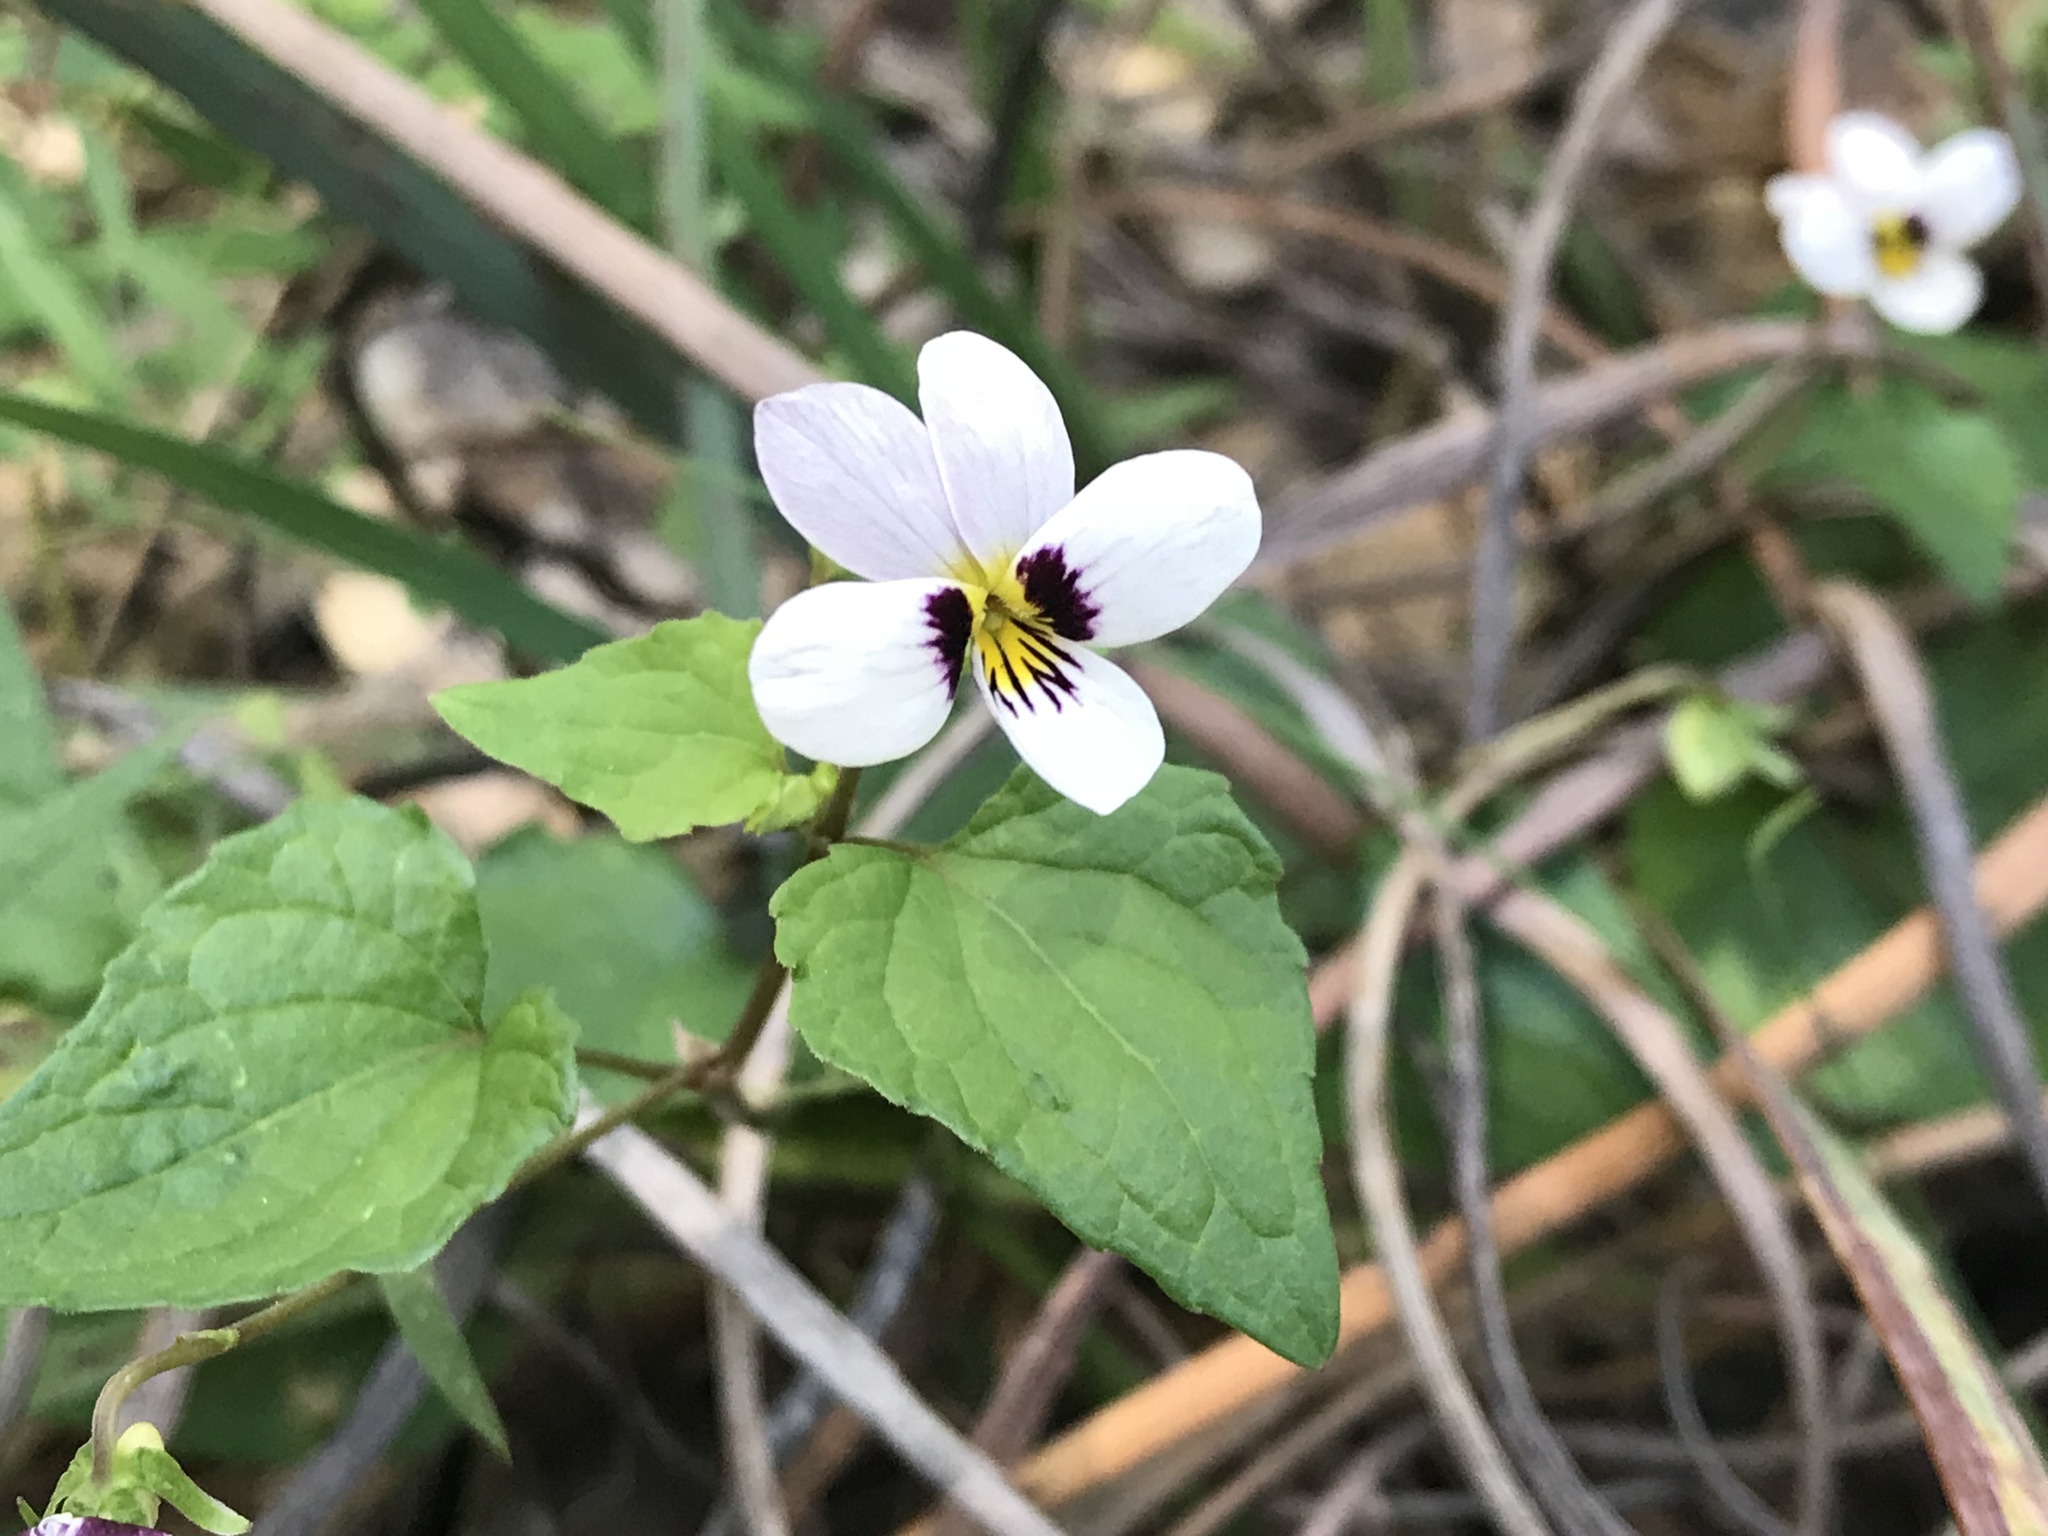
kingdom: Plantae
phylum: Tracheophyta
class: Magnoliopsida
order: Malpighiales
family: Violaceae
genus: Viola
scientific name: Viola ocellata
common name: Western heart's ease
